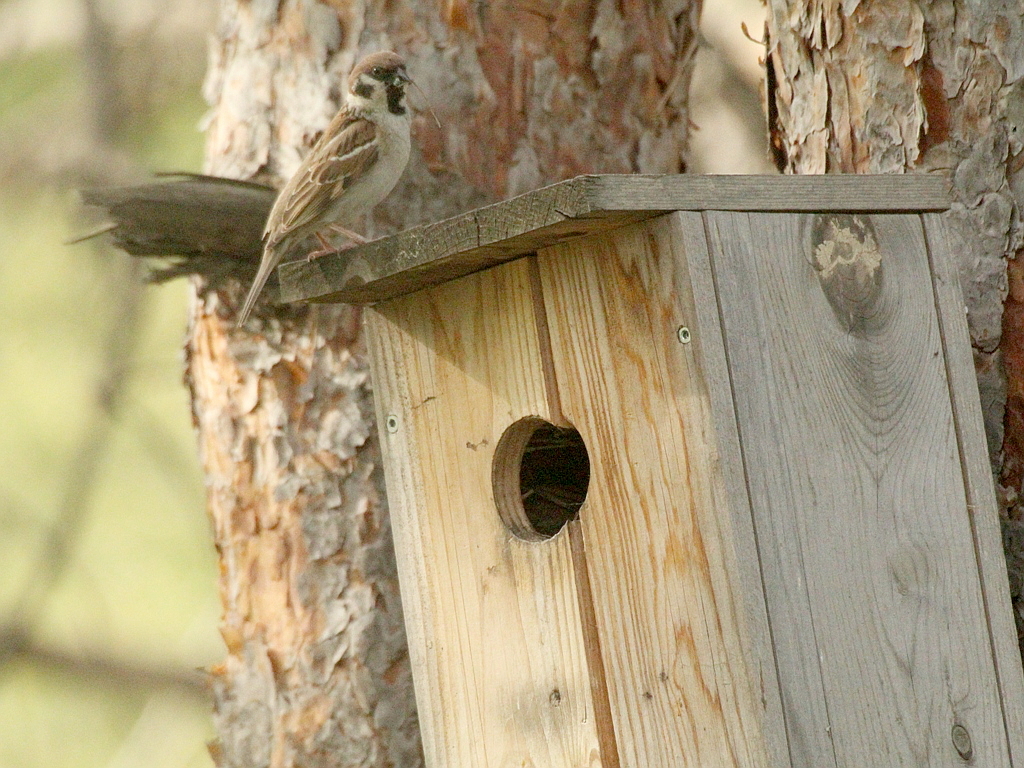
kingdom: Animalia
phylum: Chordata
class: Aves
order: Passeriformes
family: Passeridae
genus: Passer
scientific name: Passer montanus
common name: Eurasian tree sparrow
